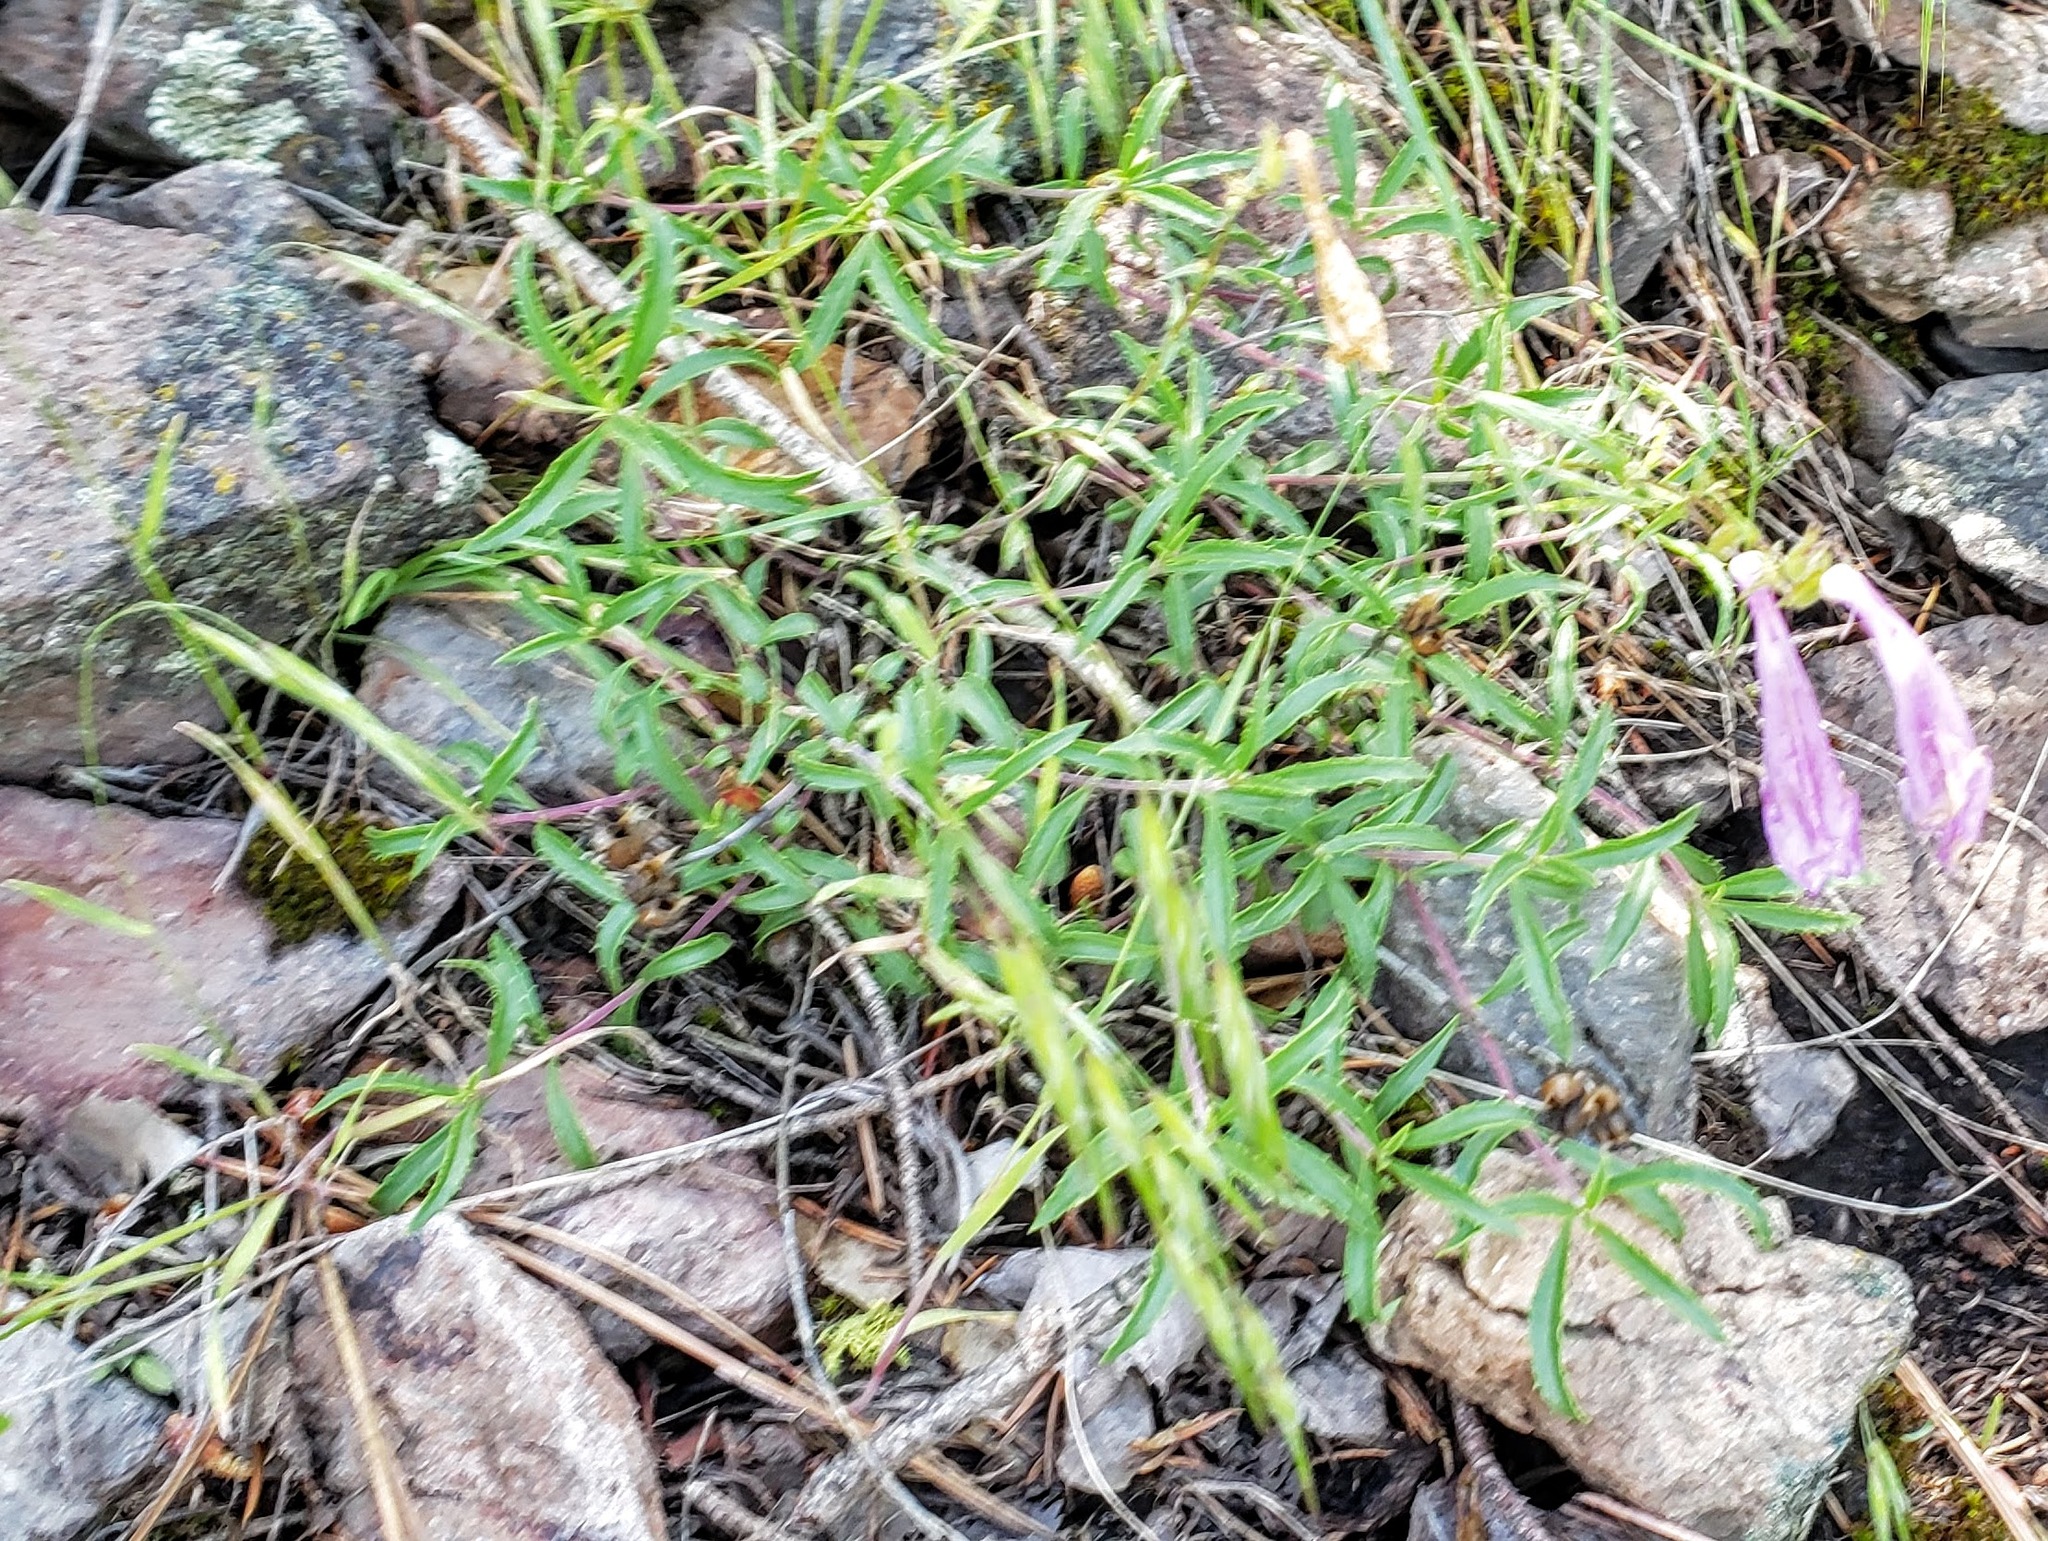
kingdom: Plantae
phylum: Tracheophyta
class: Magnoliopsida
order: Lamiales
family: Plantaginaceae
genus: Penstemon
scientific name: Penstemon fruticosus
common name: Bush penstemon
